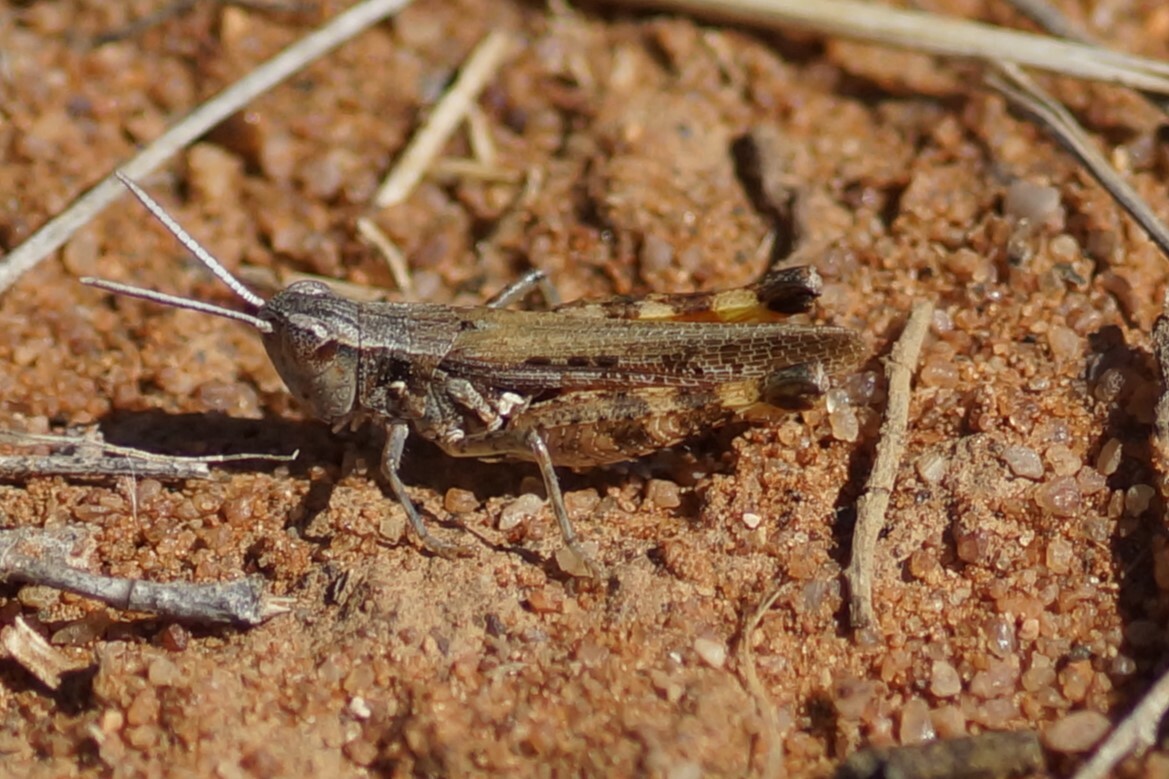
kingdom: Animalia
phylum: Arthropoda
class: Insecta
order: Orthoptera
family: Acrididae
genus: Azelota
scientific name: Azelota
